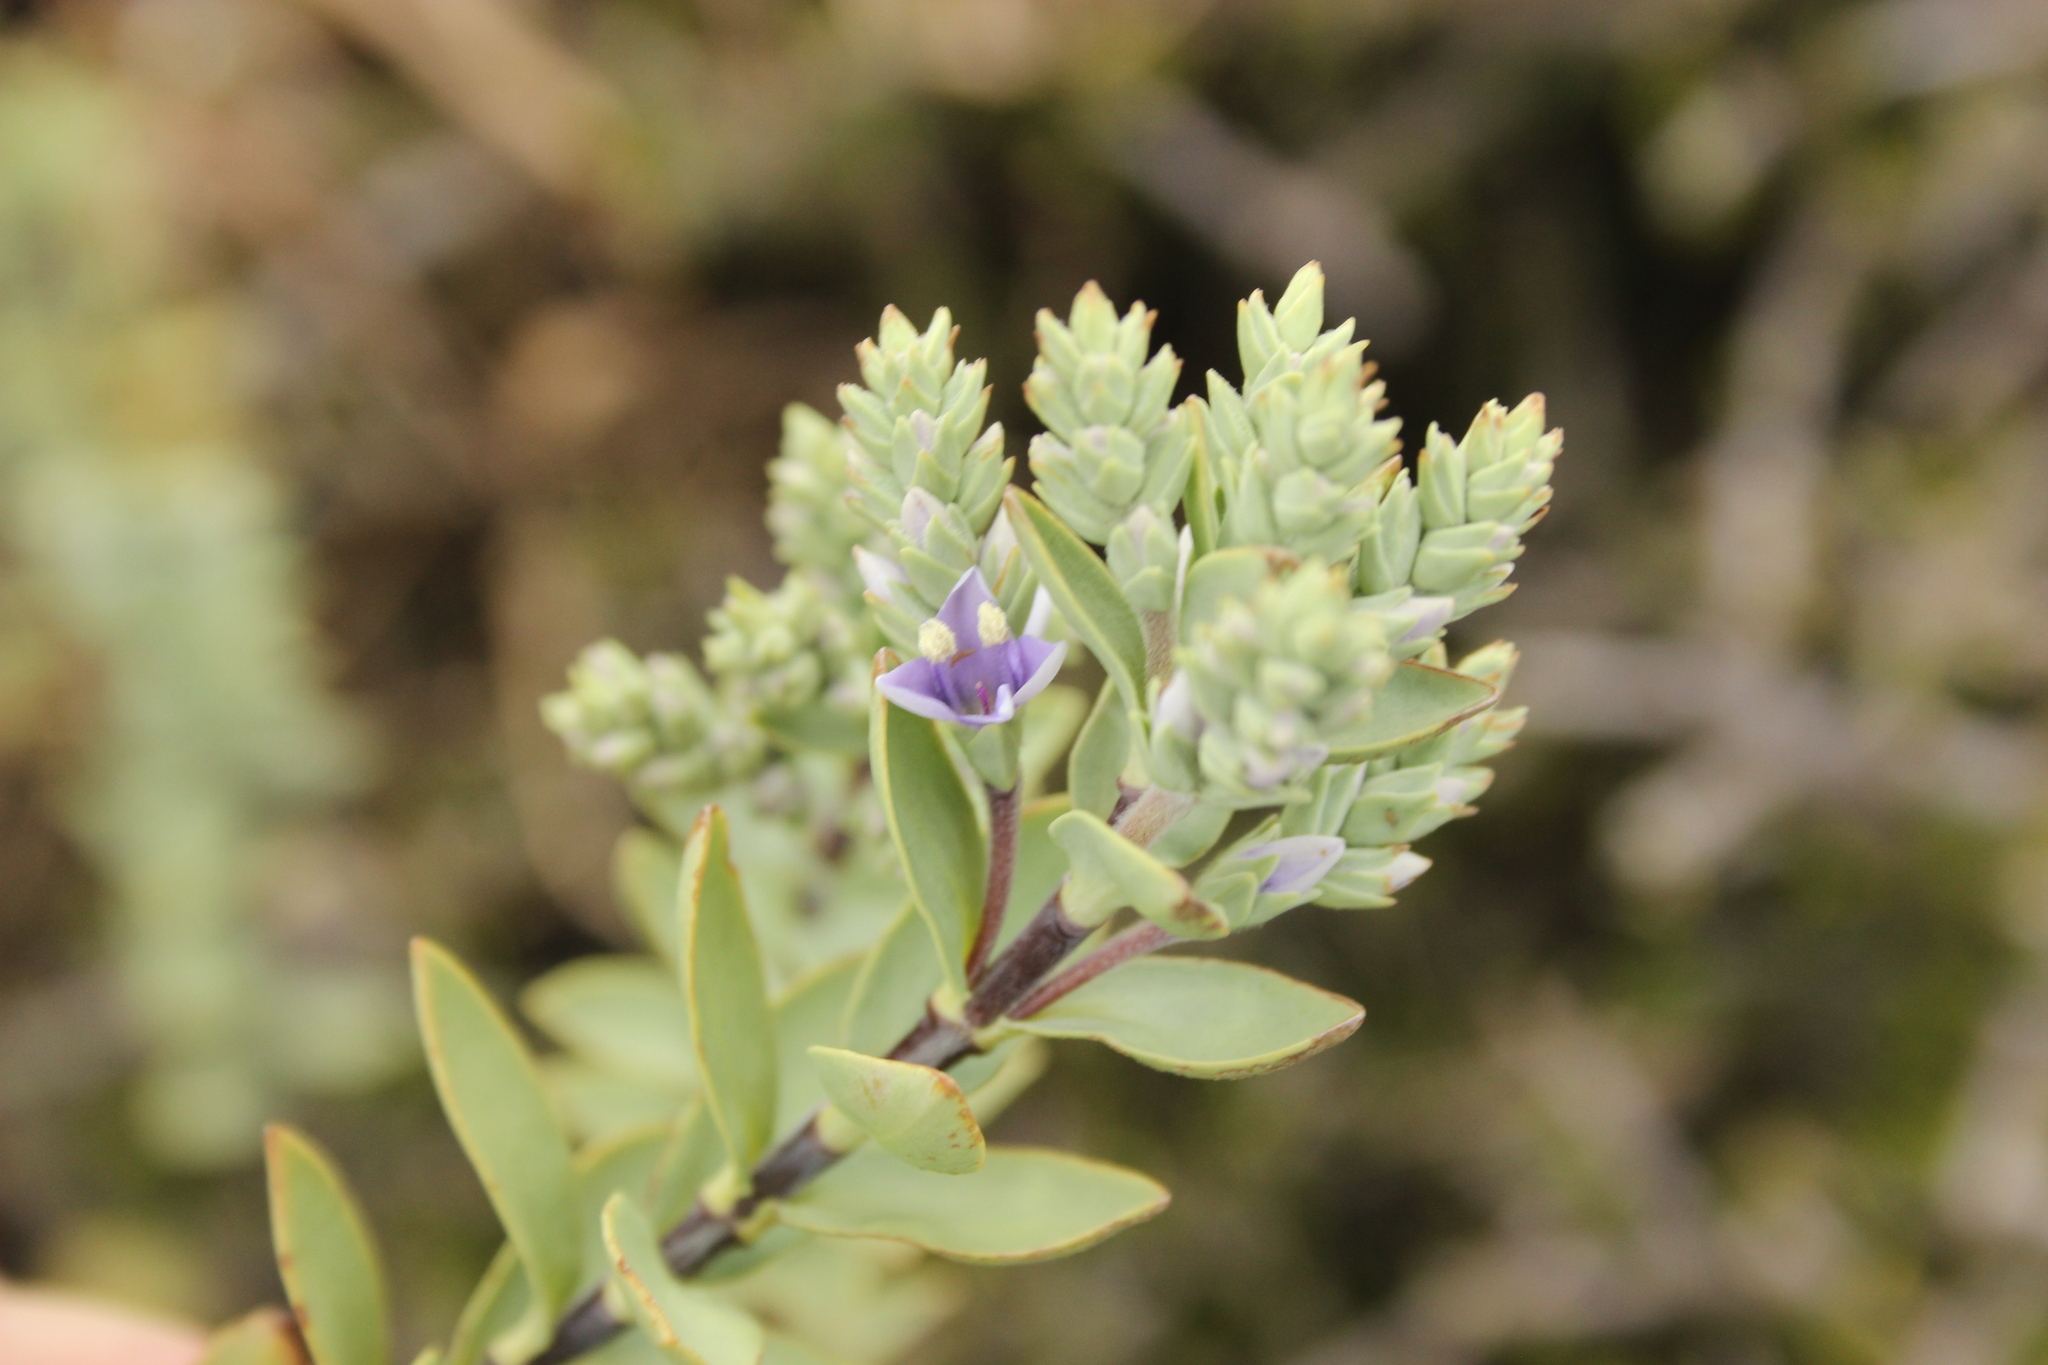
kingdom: Plantae
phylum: Tracheophyta
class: Magnoliopsida
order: Lamiales
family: Plantaginaceae
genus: Veronica
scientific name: Veronica pimeleoides
